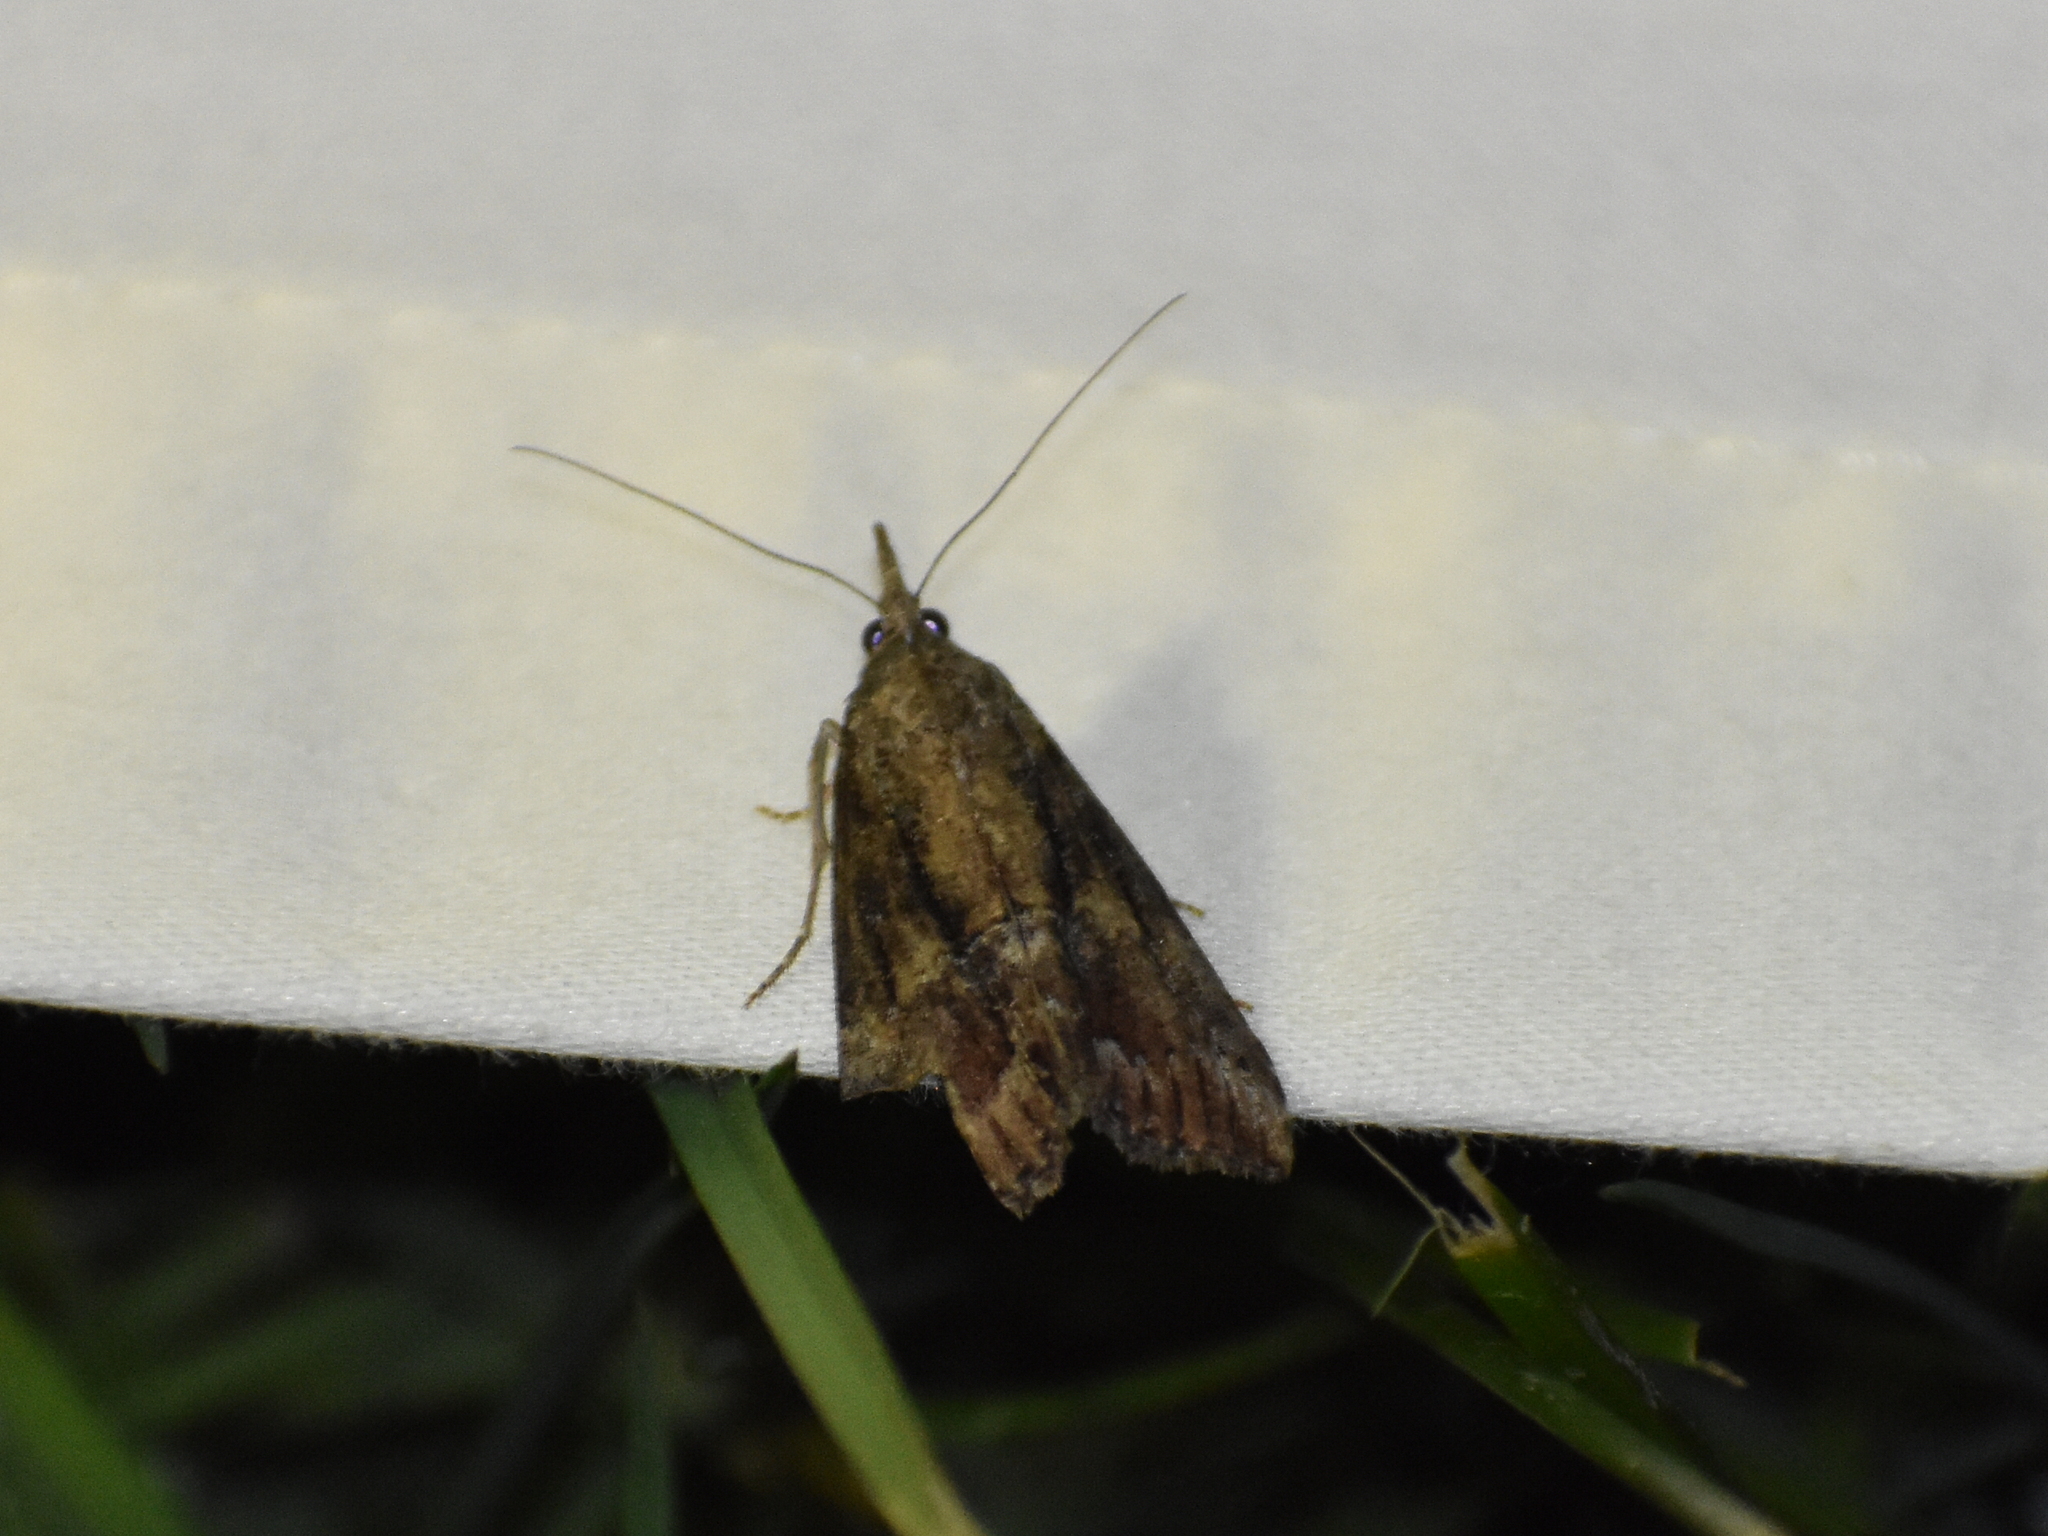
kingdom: Animalia
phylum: Arthropoda
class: Insecta
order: Lepidoptera
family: Erebidae
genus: Hypena
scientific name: Hypena scabra
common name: Green cloverworm
